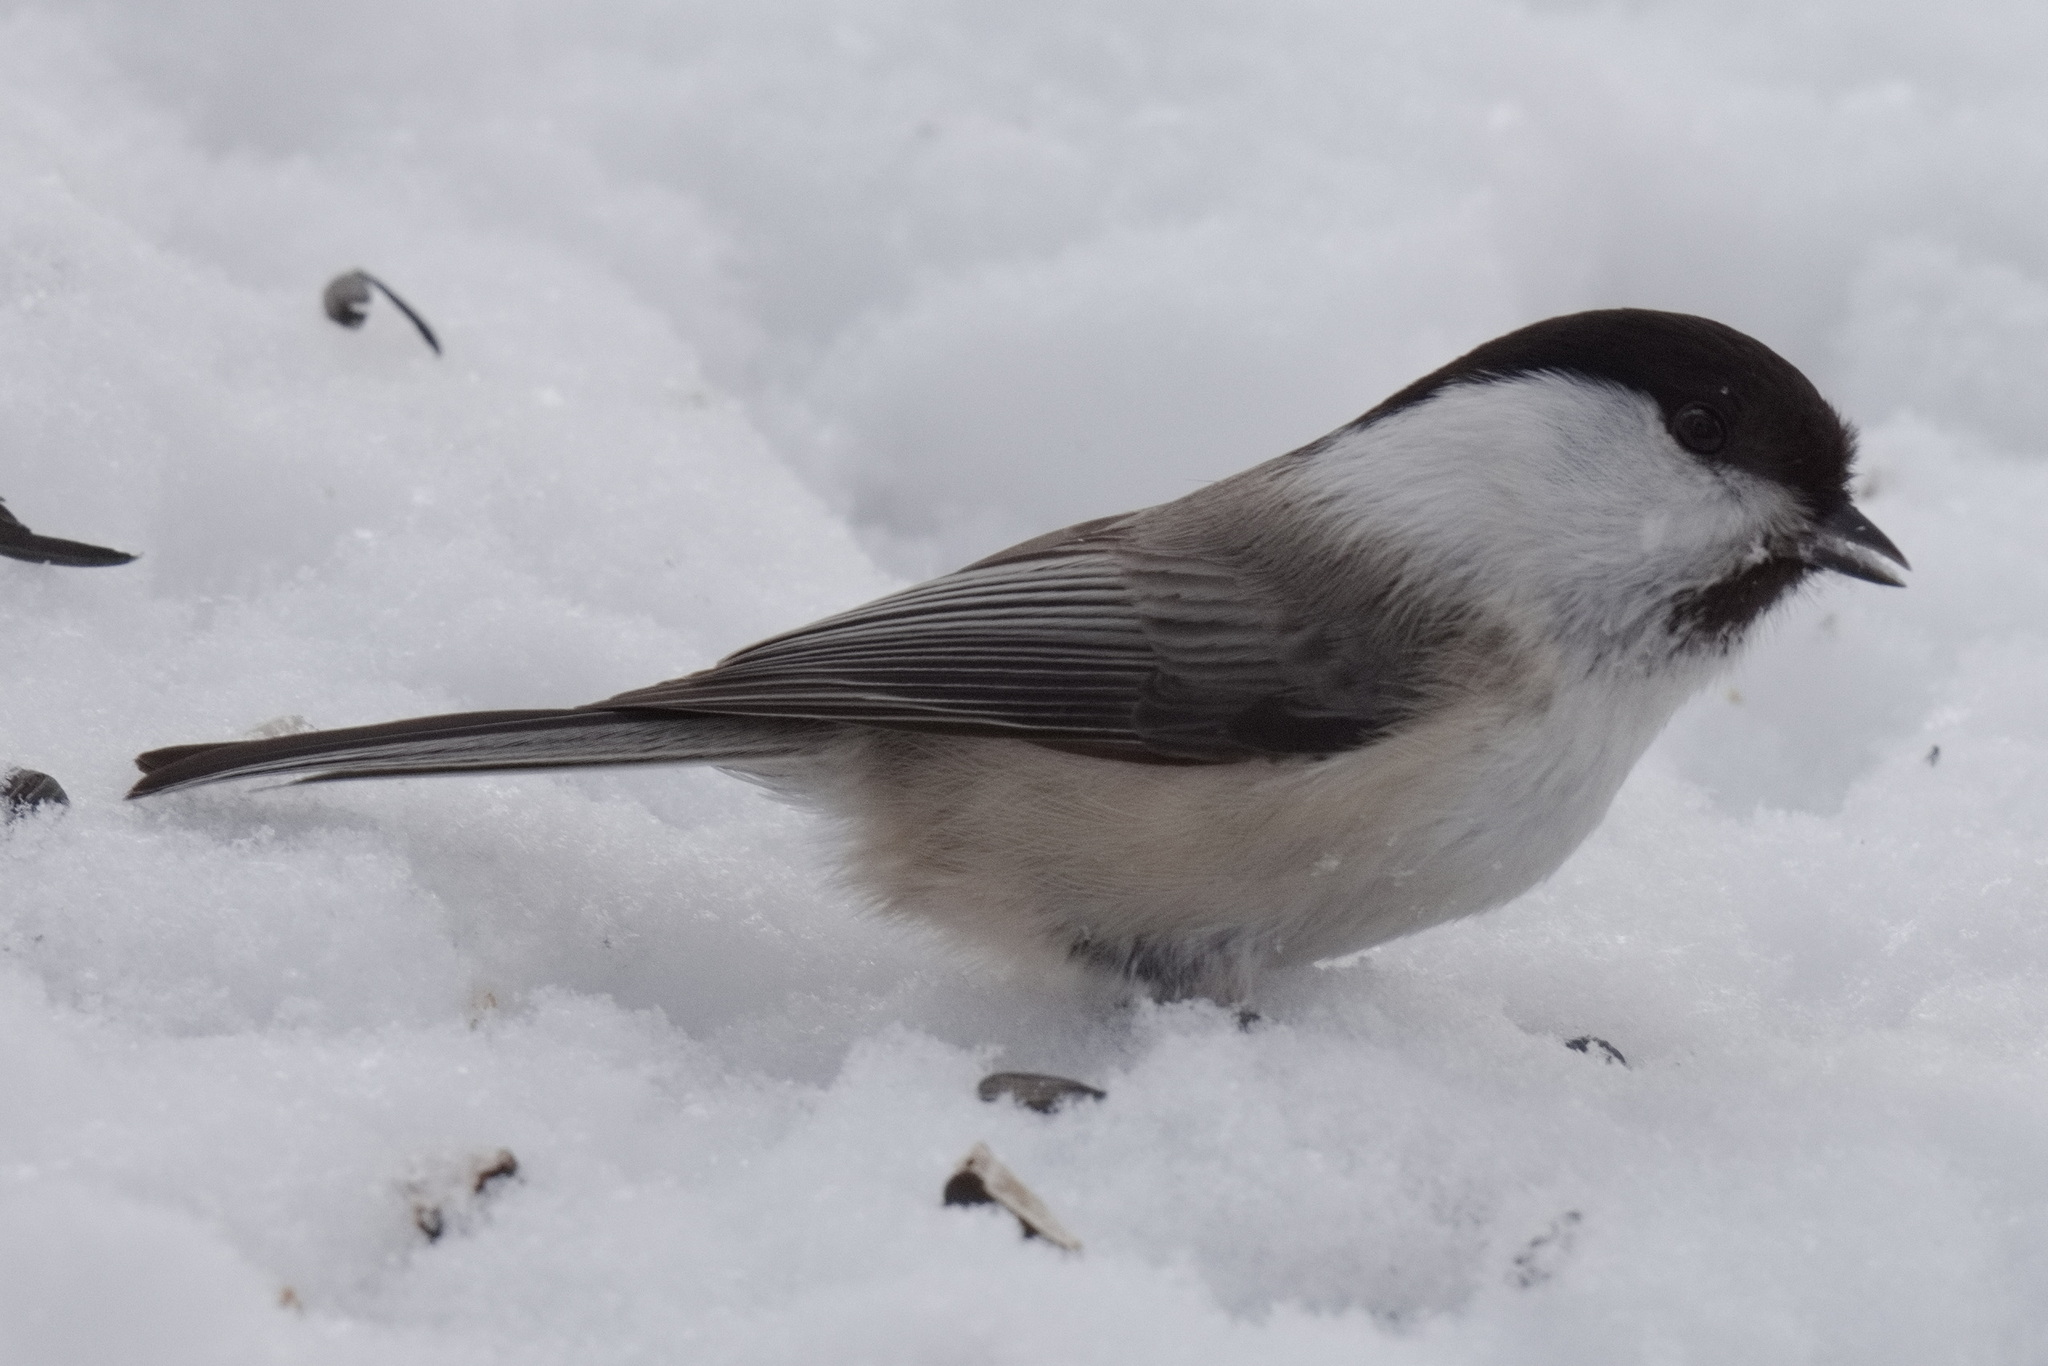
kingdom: Animalia
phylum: Chordata
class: Aves
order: Passeriformes
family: Paridae
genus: Poecile
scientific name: Poecile montanus
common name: Willow tit
